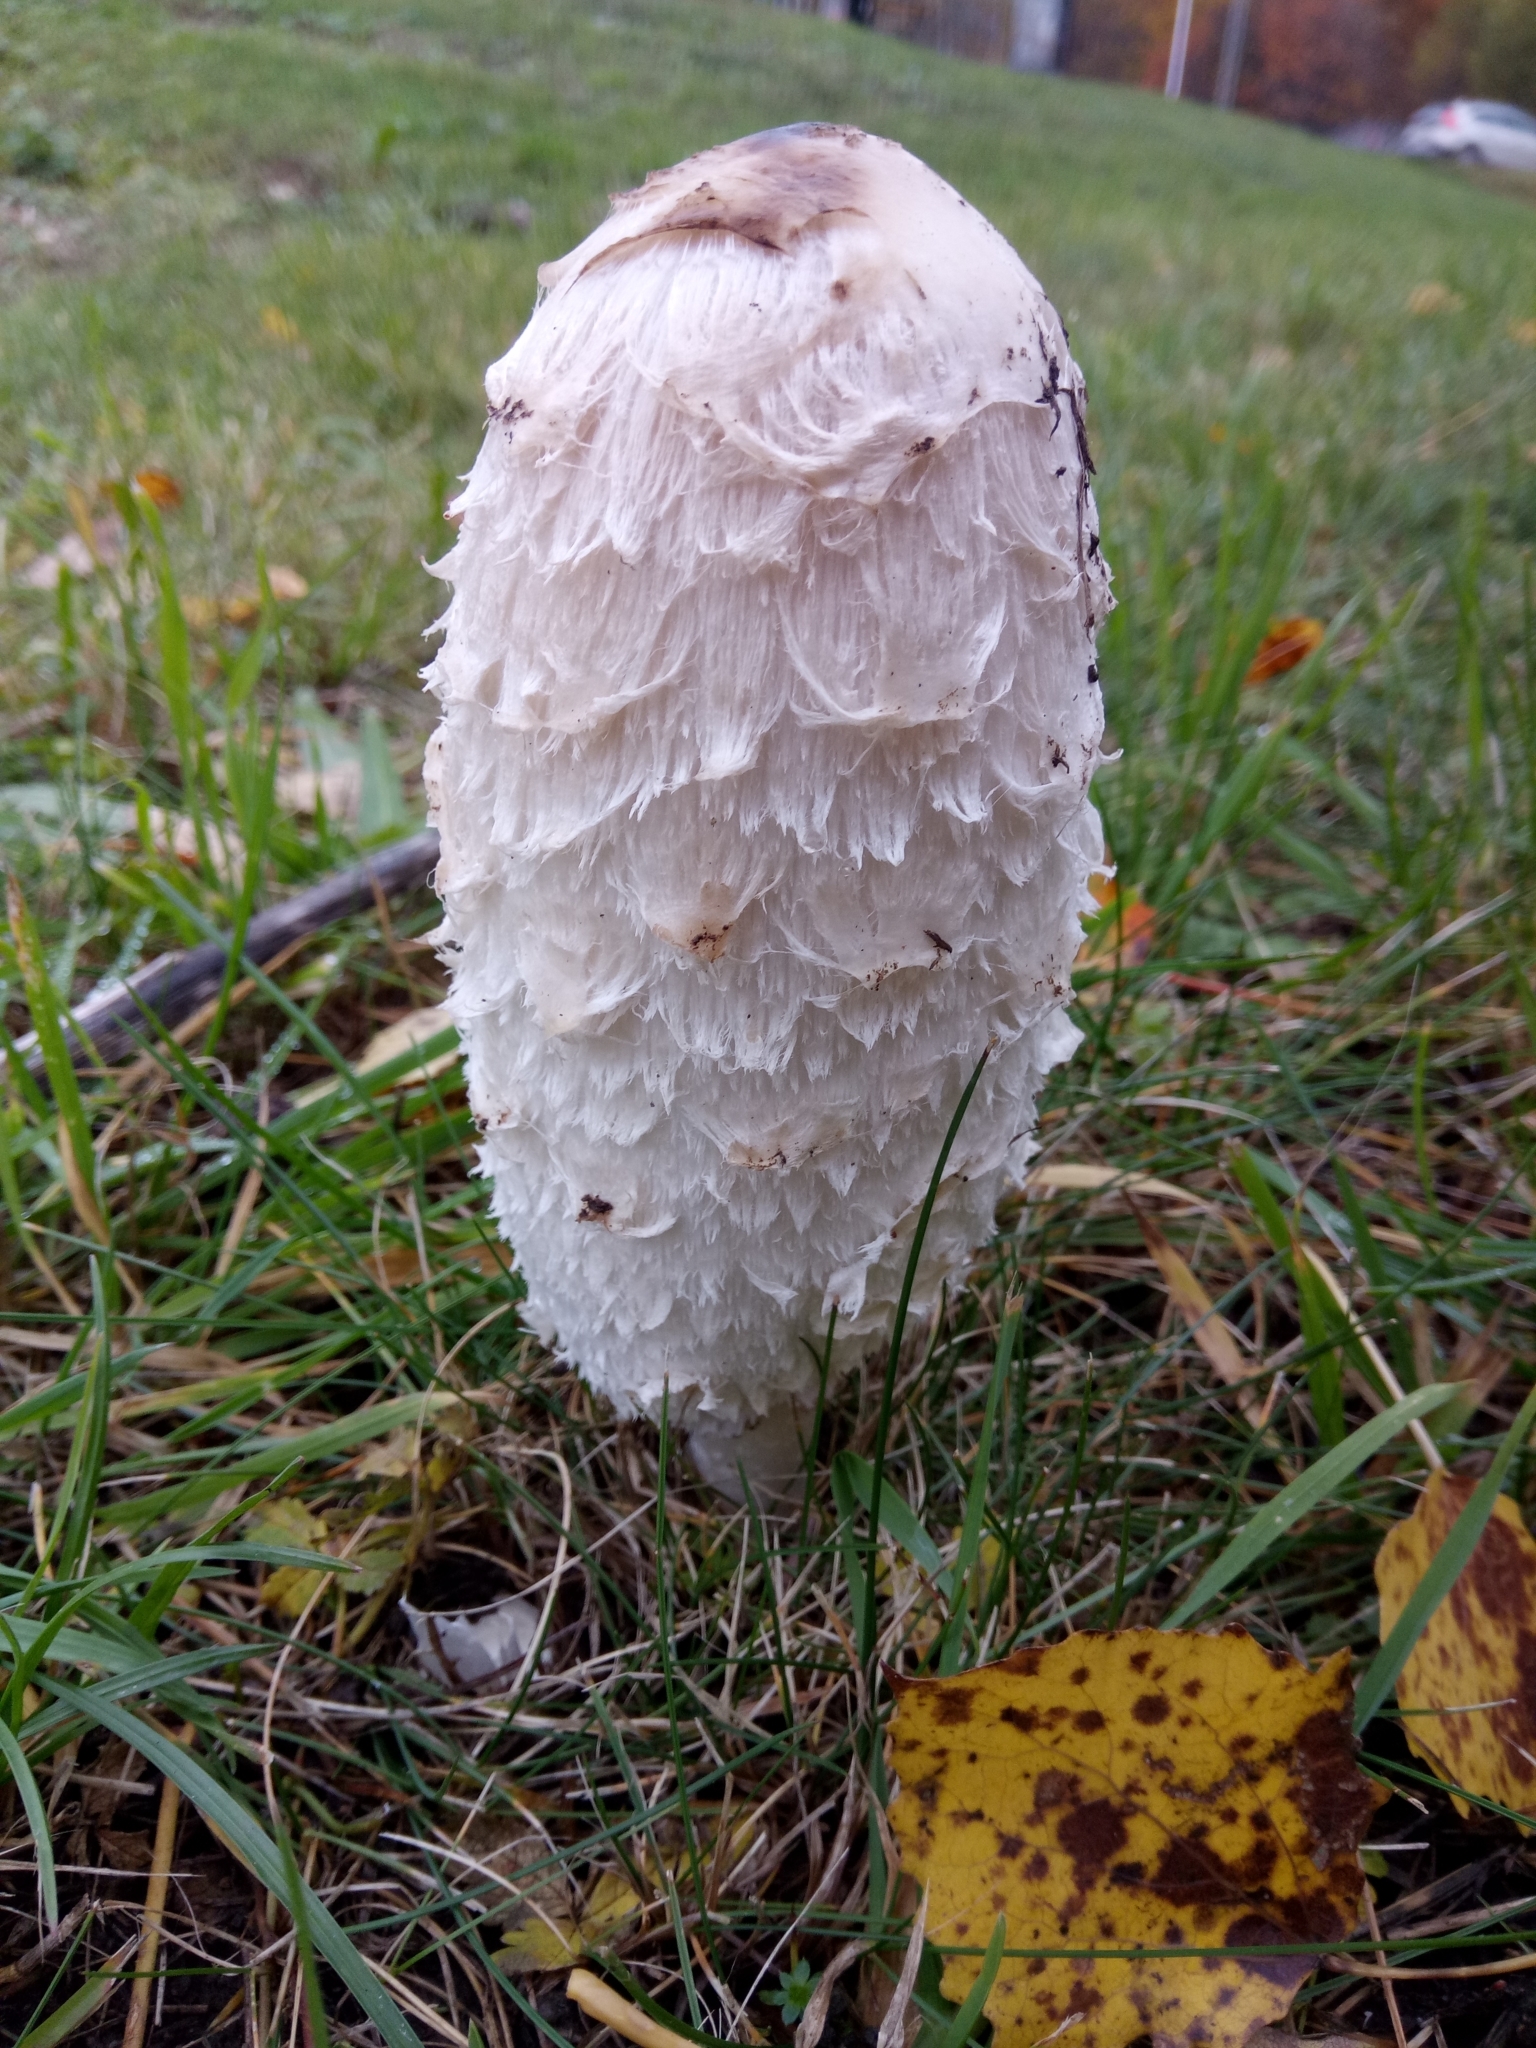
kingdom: Fungi
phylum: Basidiomycota
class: Agaricomycetes
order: Agaricales
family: Agaricaceae
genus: Coprinus
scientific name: Coprinus comatus
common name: Lawyer's wig
